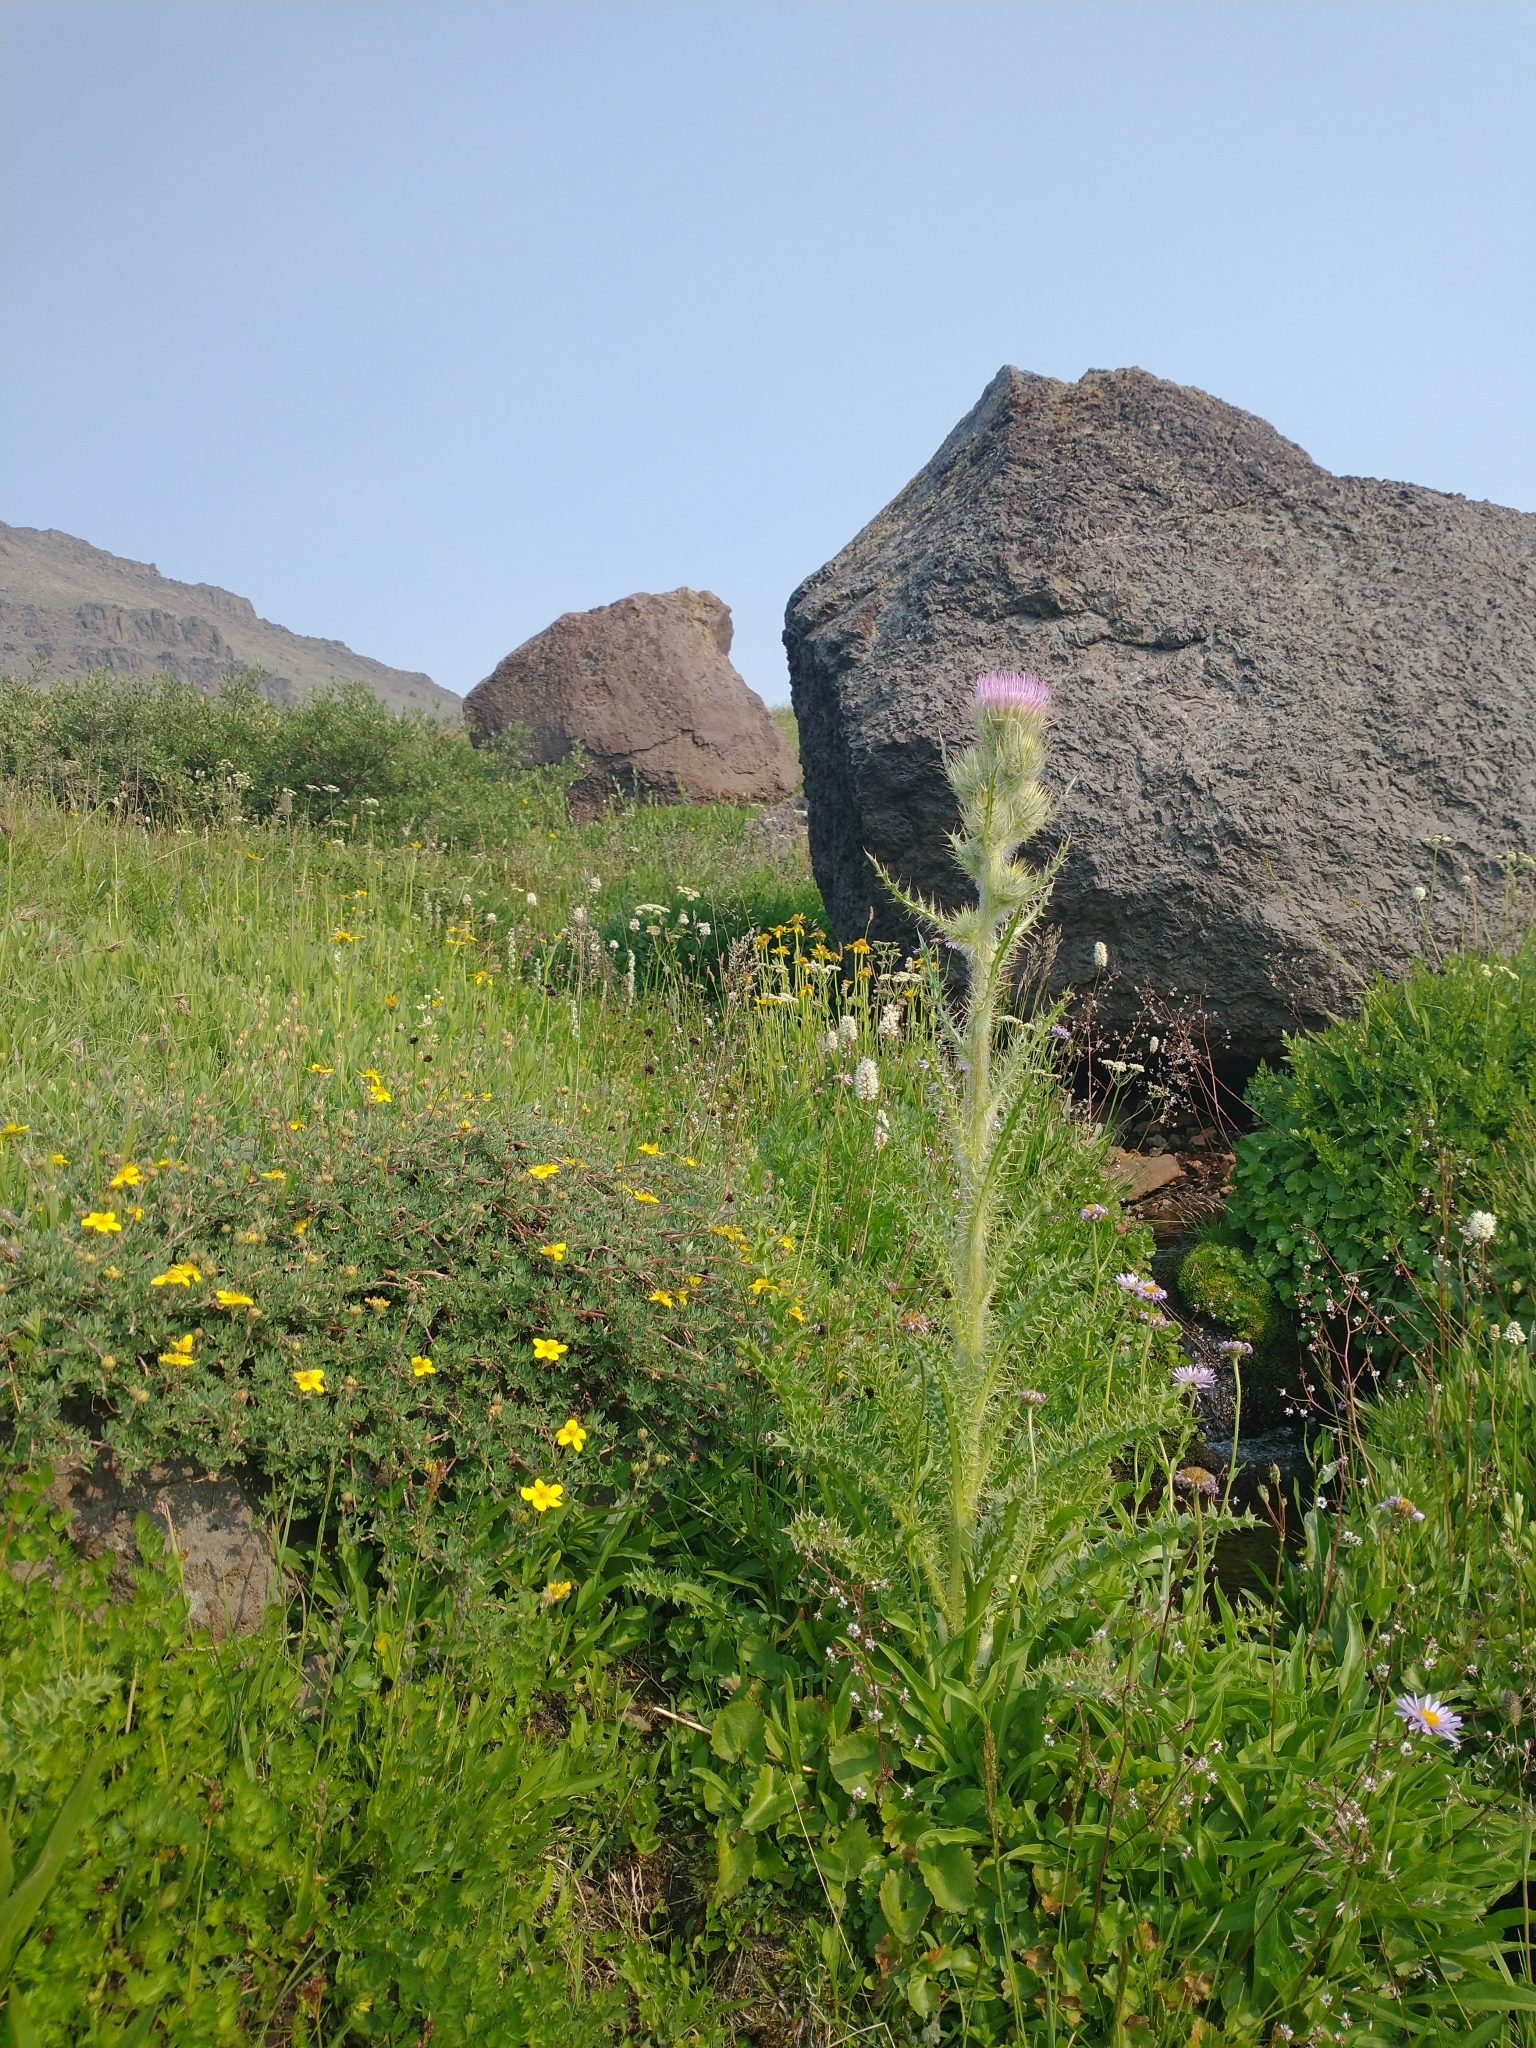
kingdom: Plantae
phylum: Tracheophyta
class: Magnoliopsida
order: Asterales
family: Asteraceae
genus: Cirsium
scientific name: Cirsium peckii
